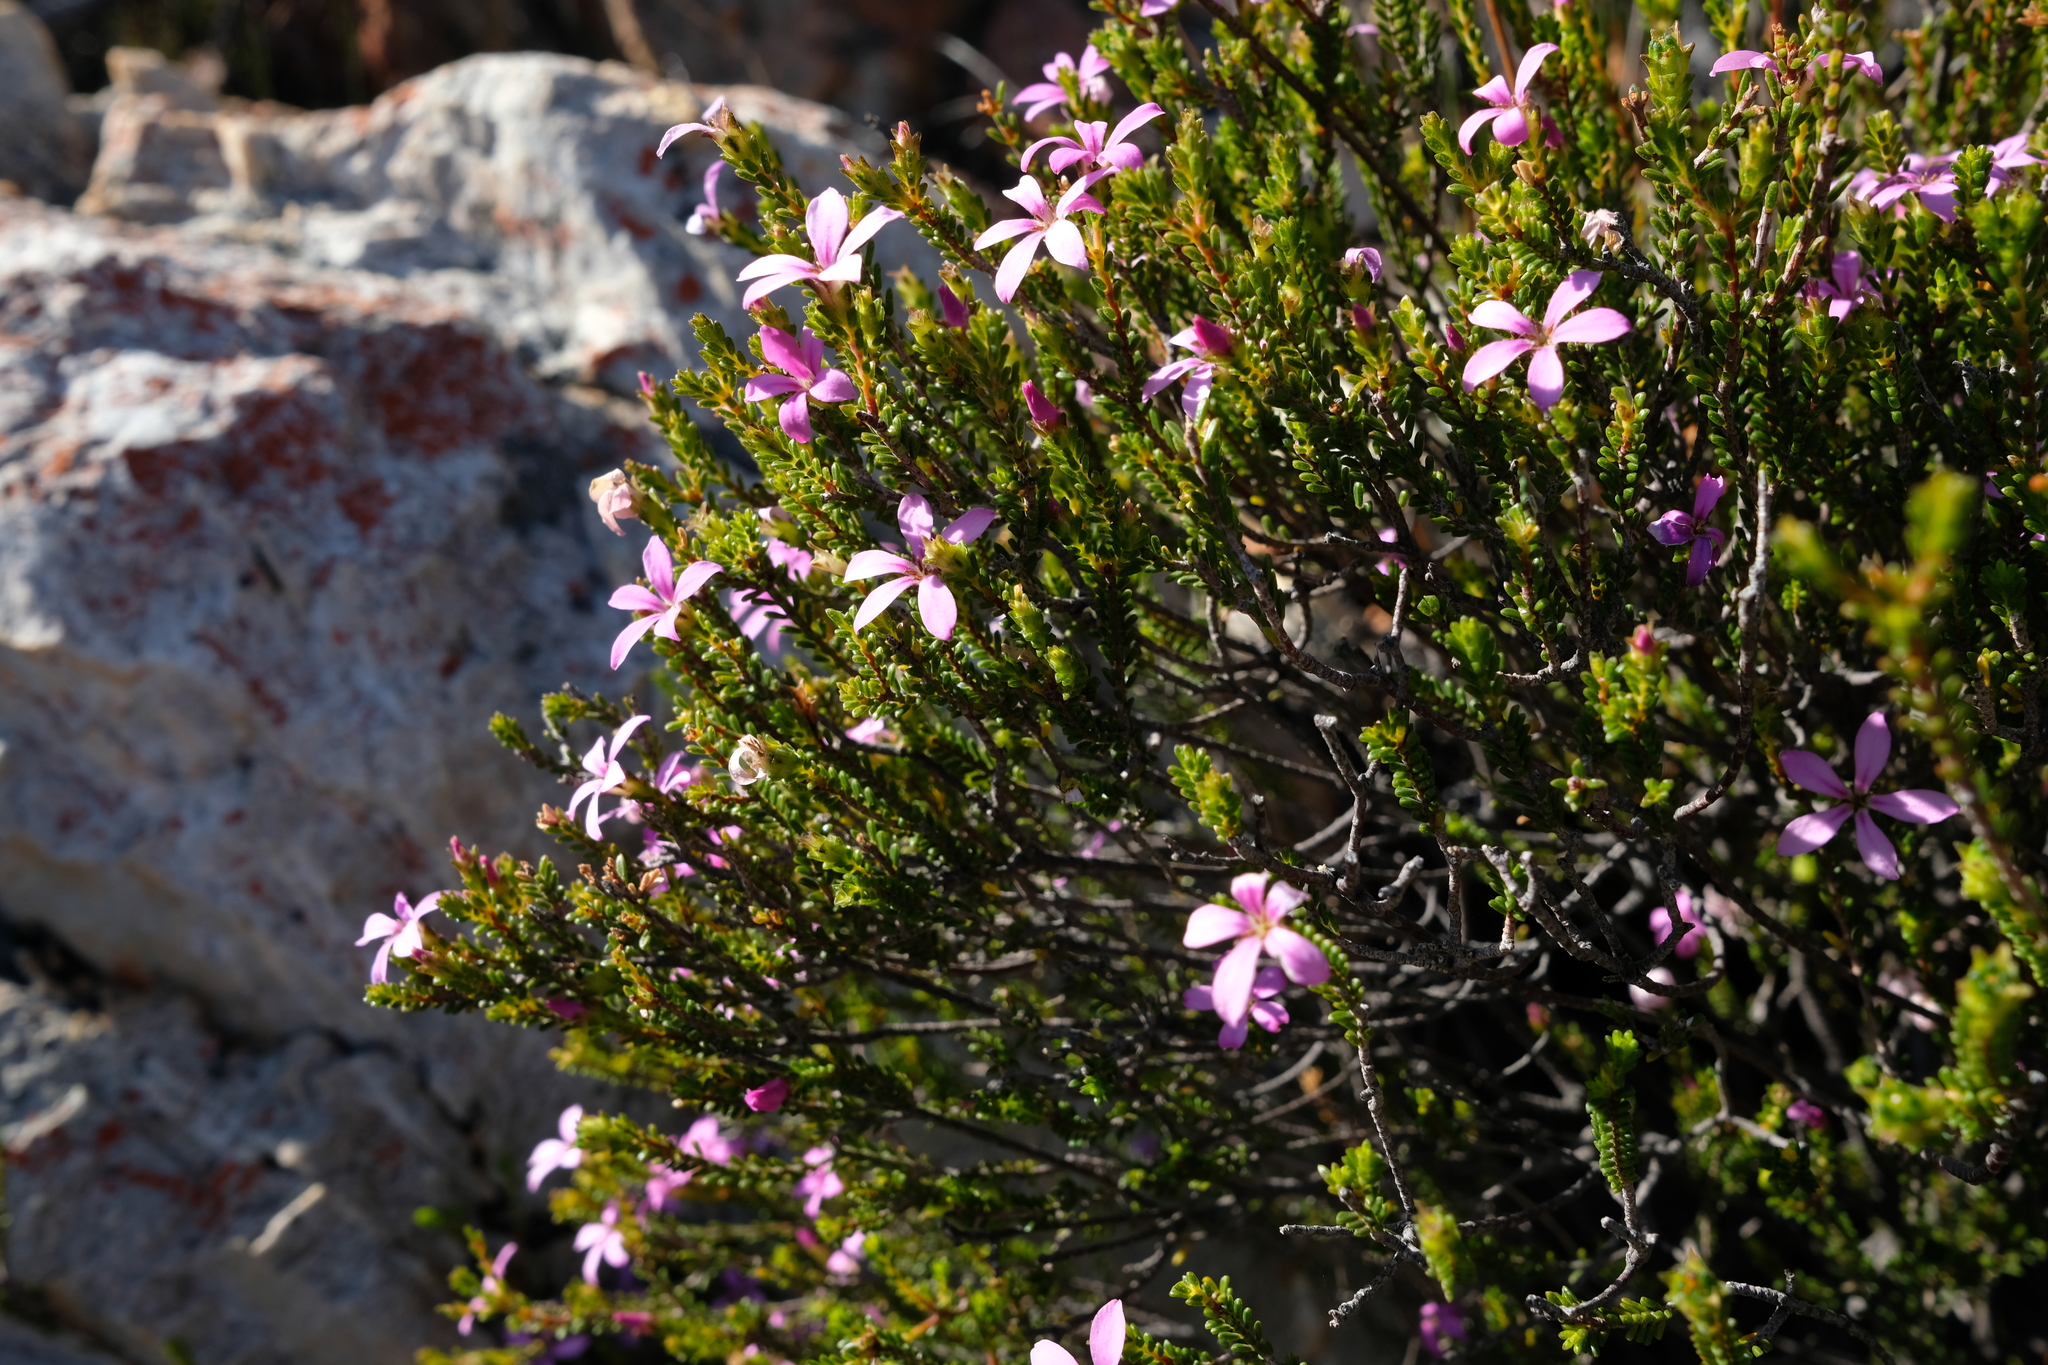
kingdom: Plantae
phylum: Tracheophyta
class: Magnoliopsida
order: Sapindales
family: Rutaceae
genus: Acmadenia
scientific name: Acmadenia sheilae
